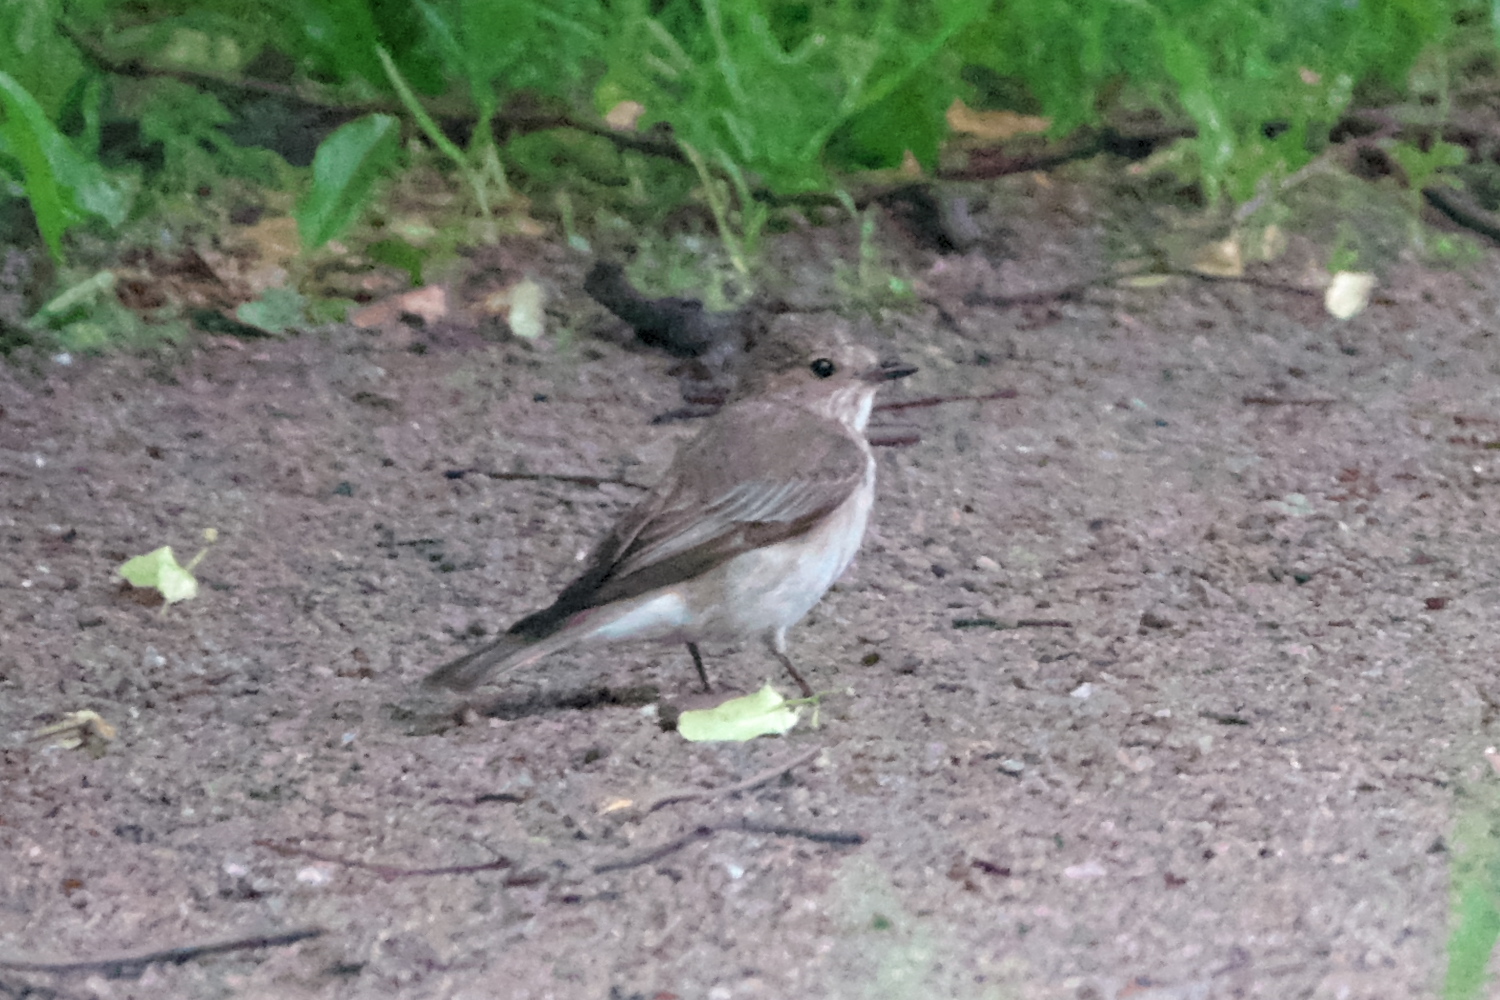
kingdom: Animalia
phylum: Chordata
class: Aves
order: Passeriformes
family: Muscicapidae
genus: Muscicapa
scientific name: Muscicapa striata
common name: Spotted flycatcher
